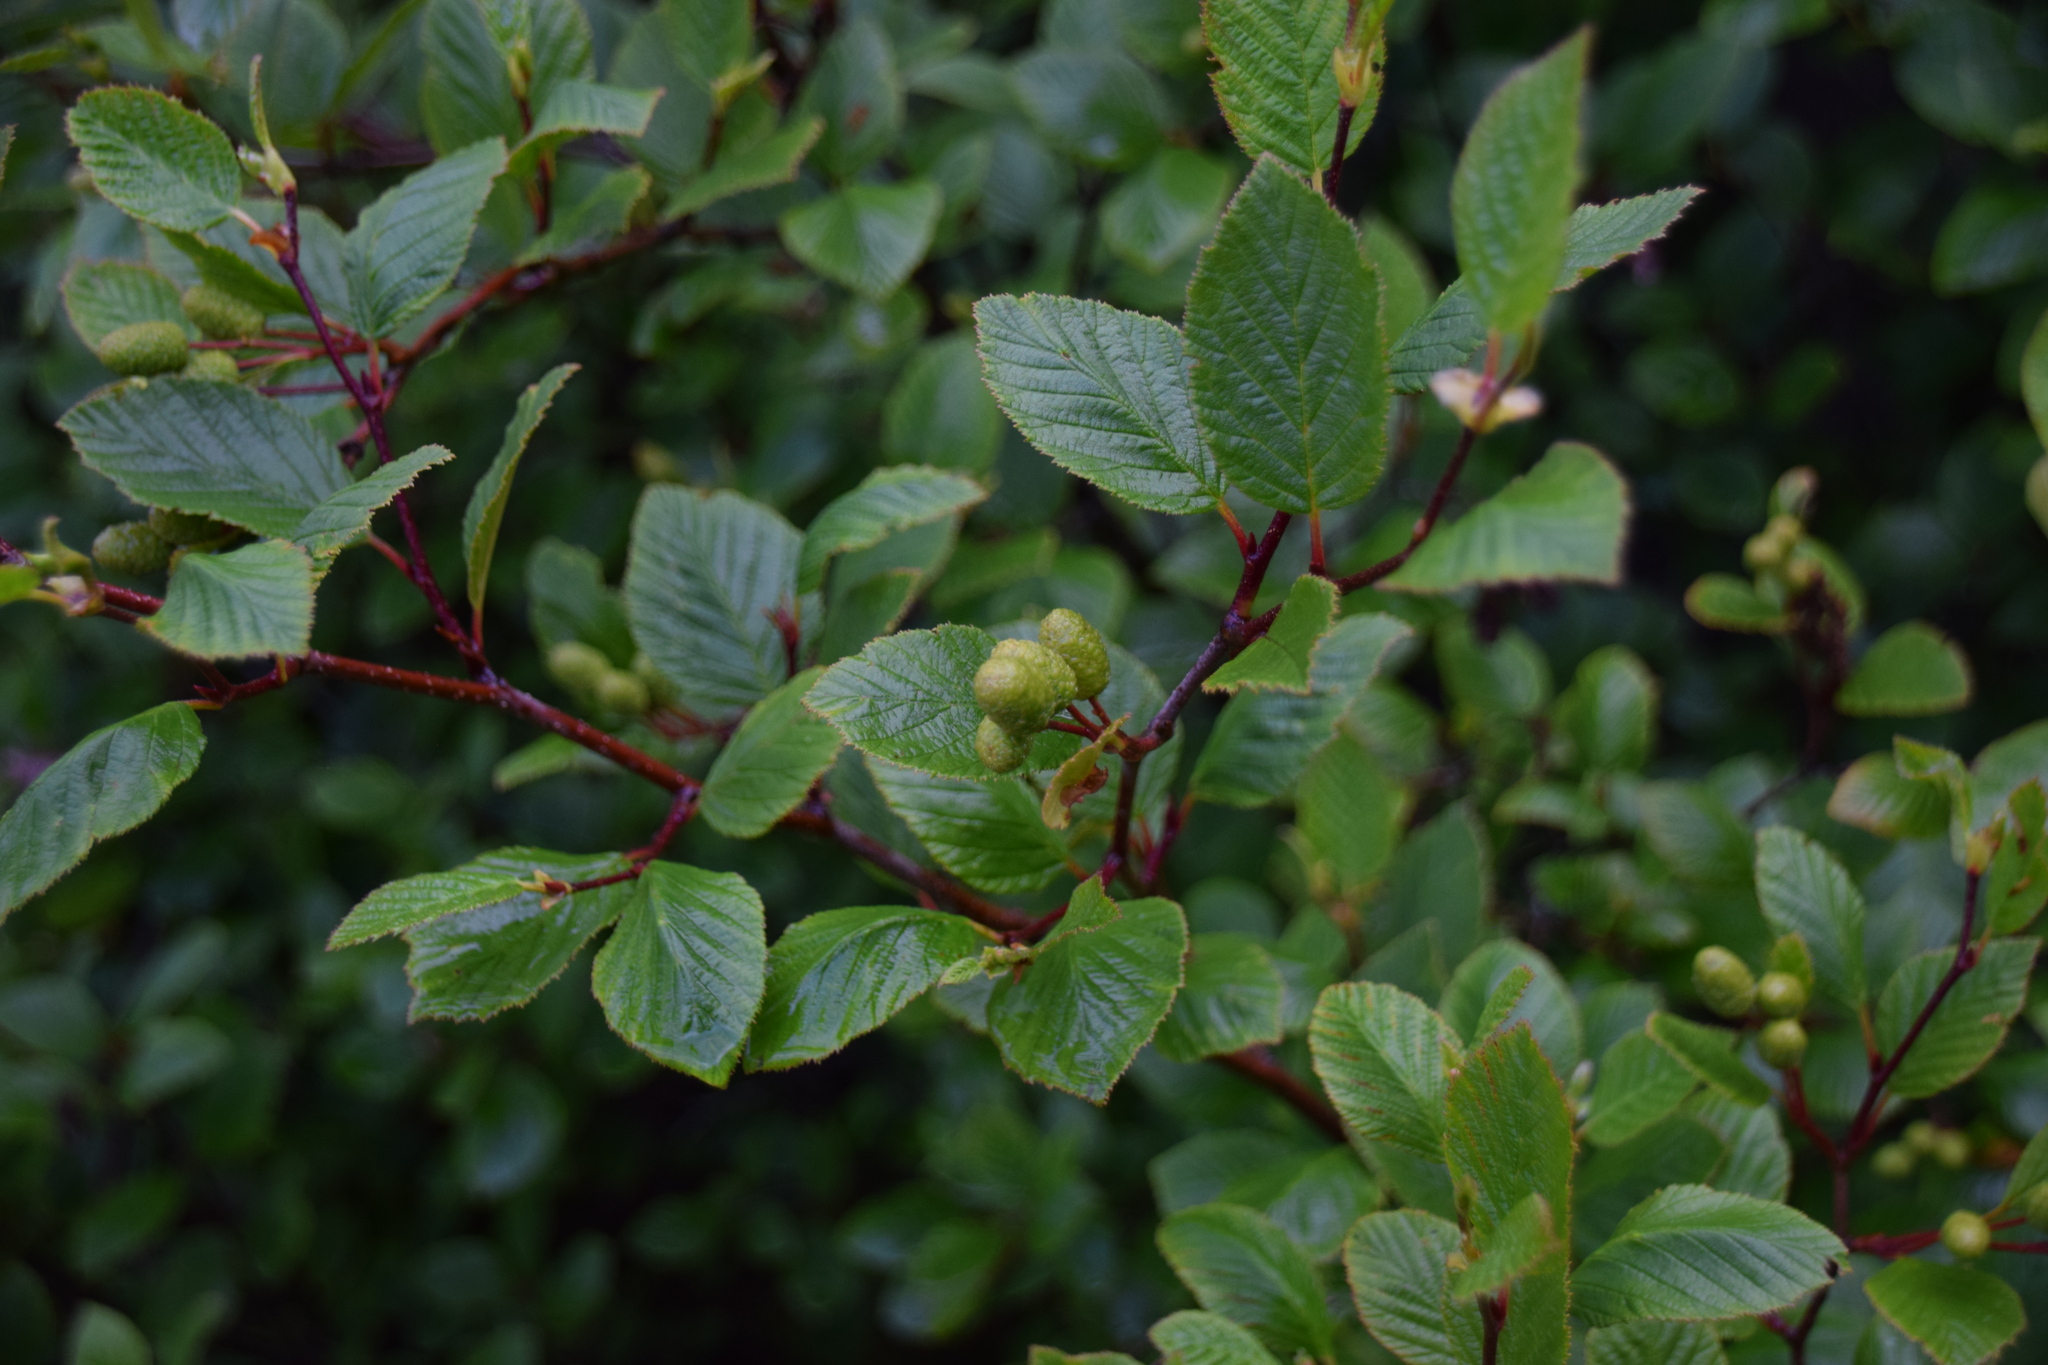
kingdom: Plantae
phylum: Tracheophyta
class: Magnoliopsida
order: Fagales
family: Betulaceae
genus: Alnus
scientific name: Alnus alnobetula
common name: Green alder
